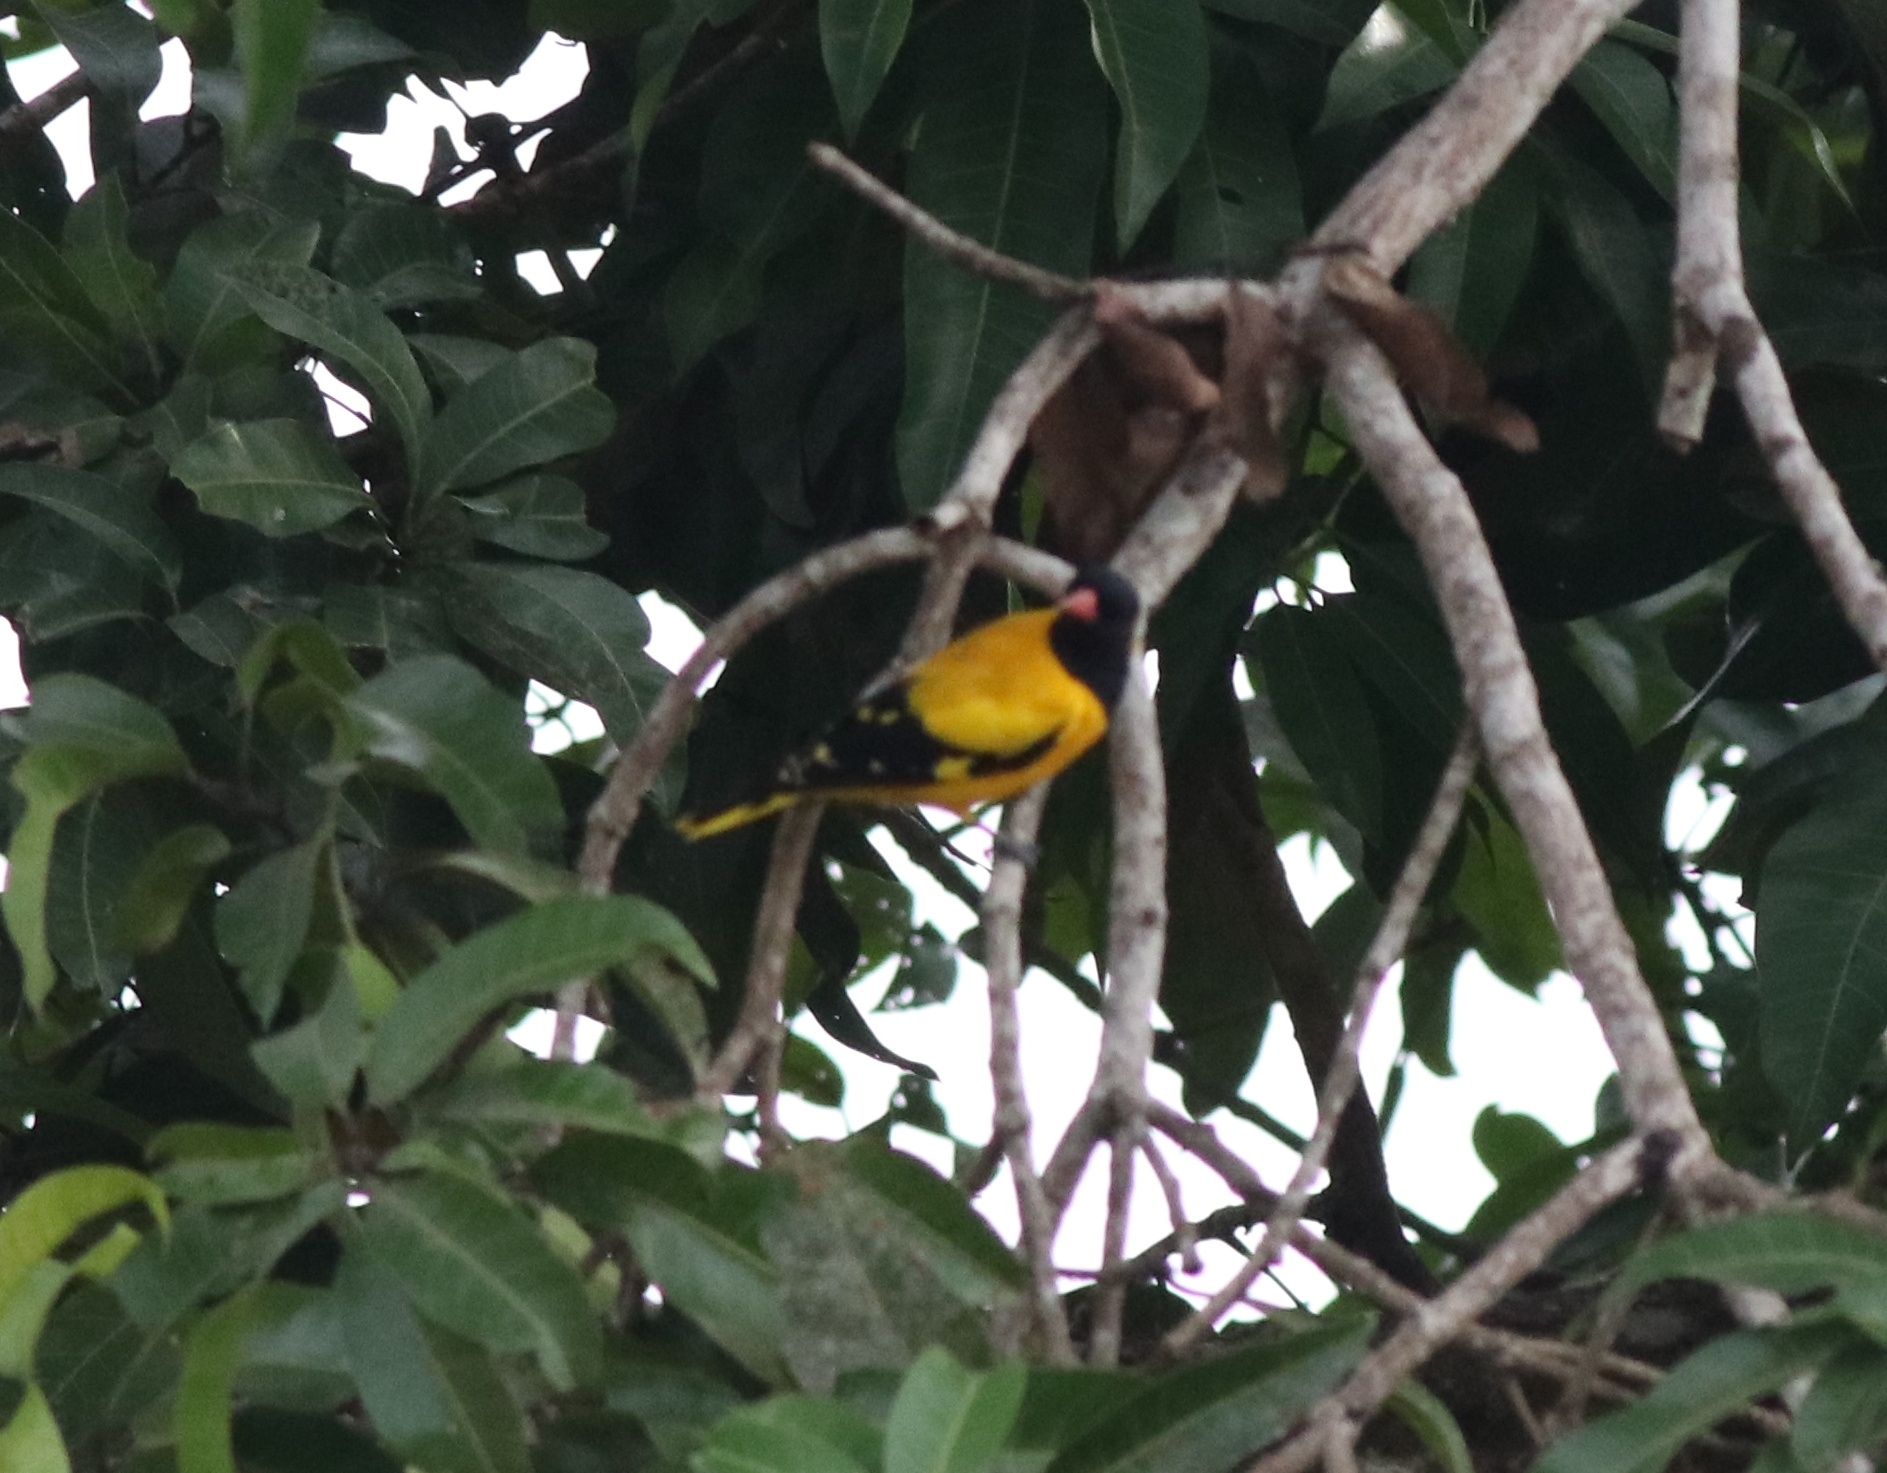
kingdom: Animalia
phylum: Chordata
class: Aves
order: Passeriformes
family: Oriolidae
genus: Oriolus
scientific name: Oriolus xanthornus
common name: Black-hooded oriole
